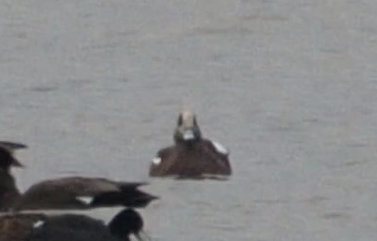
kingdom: Animalia
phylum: Chordata
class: Aves
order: Anseriformes
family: Anatidae
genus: Mareca
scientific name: Mareca americana
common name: American wigeon
